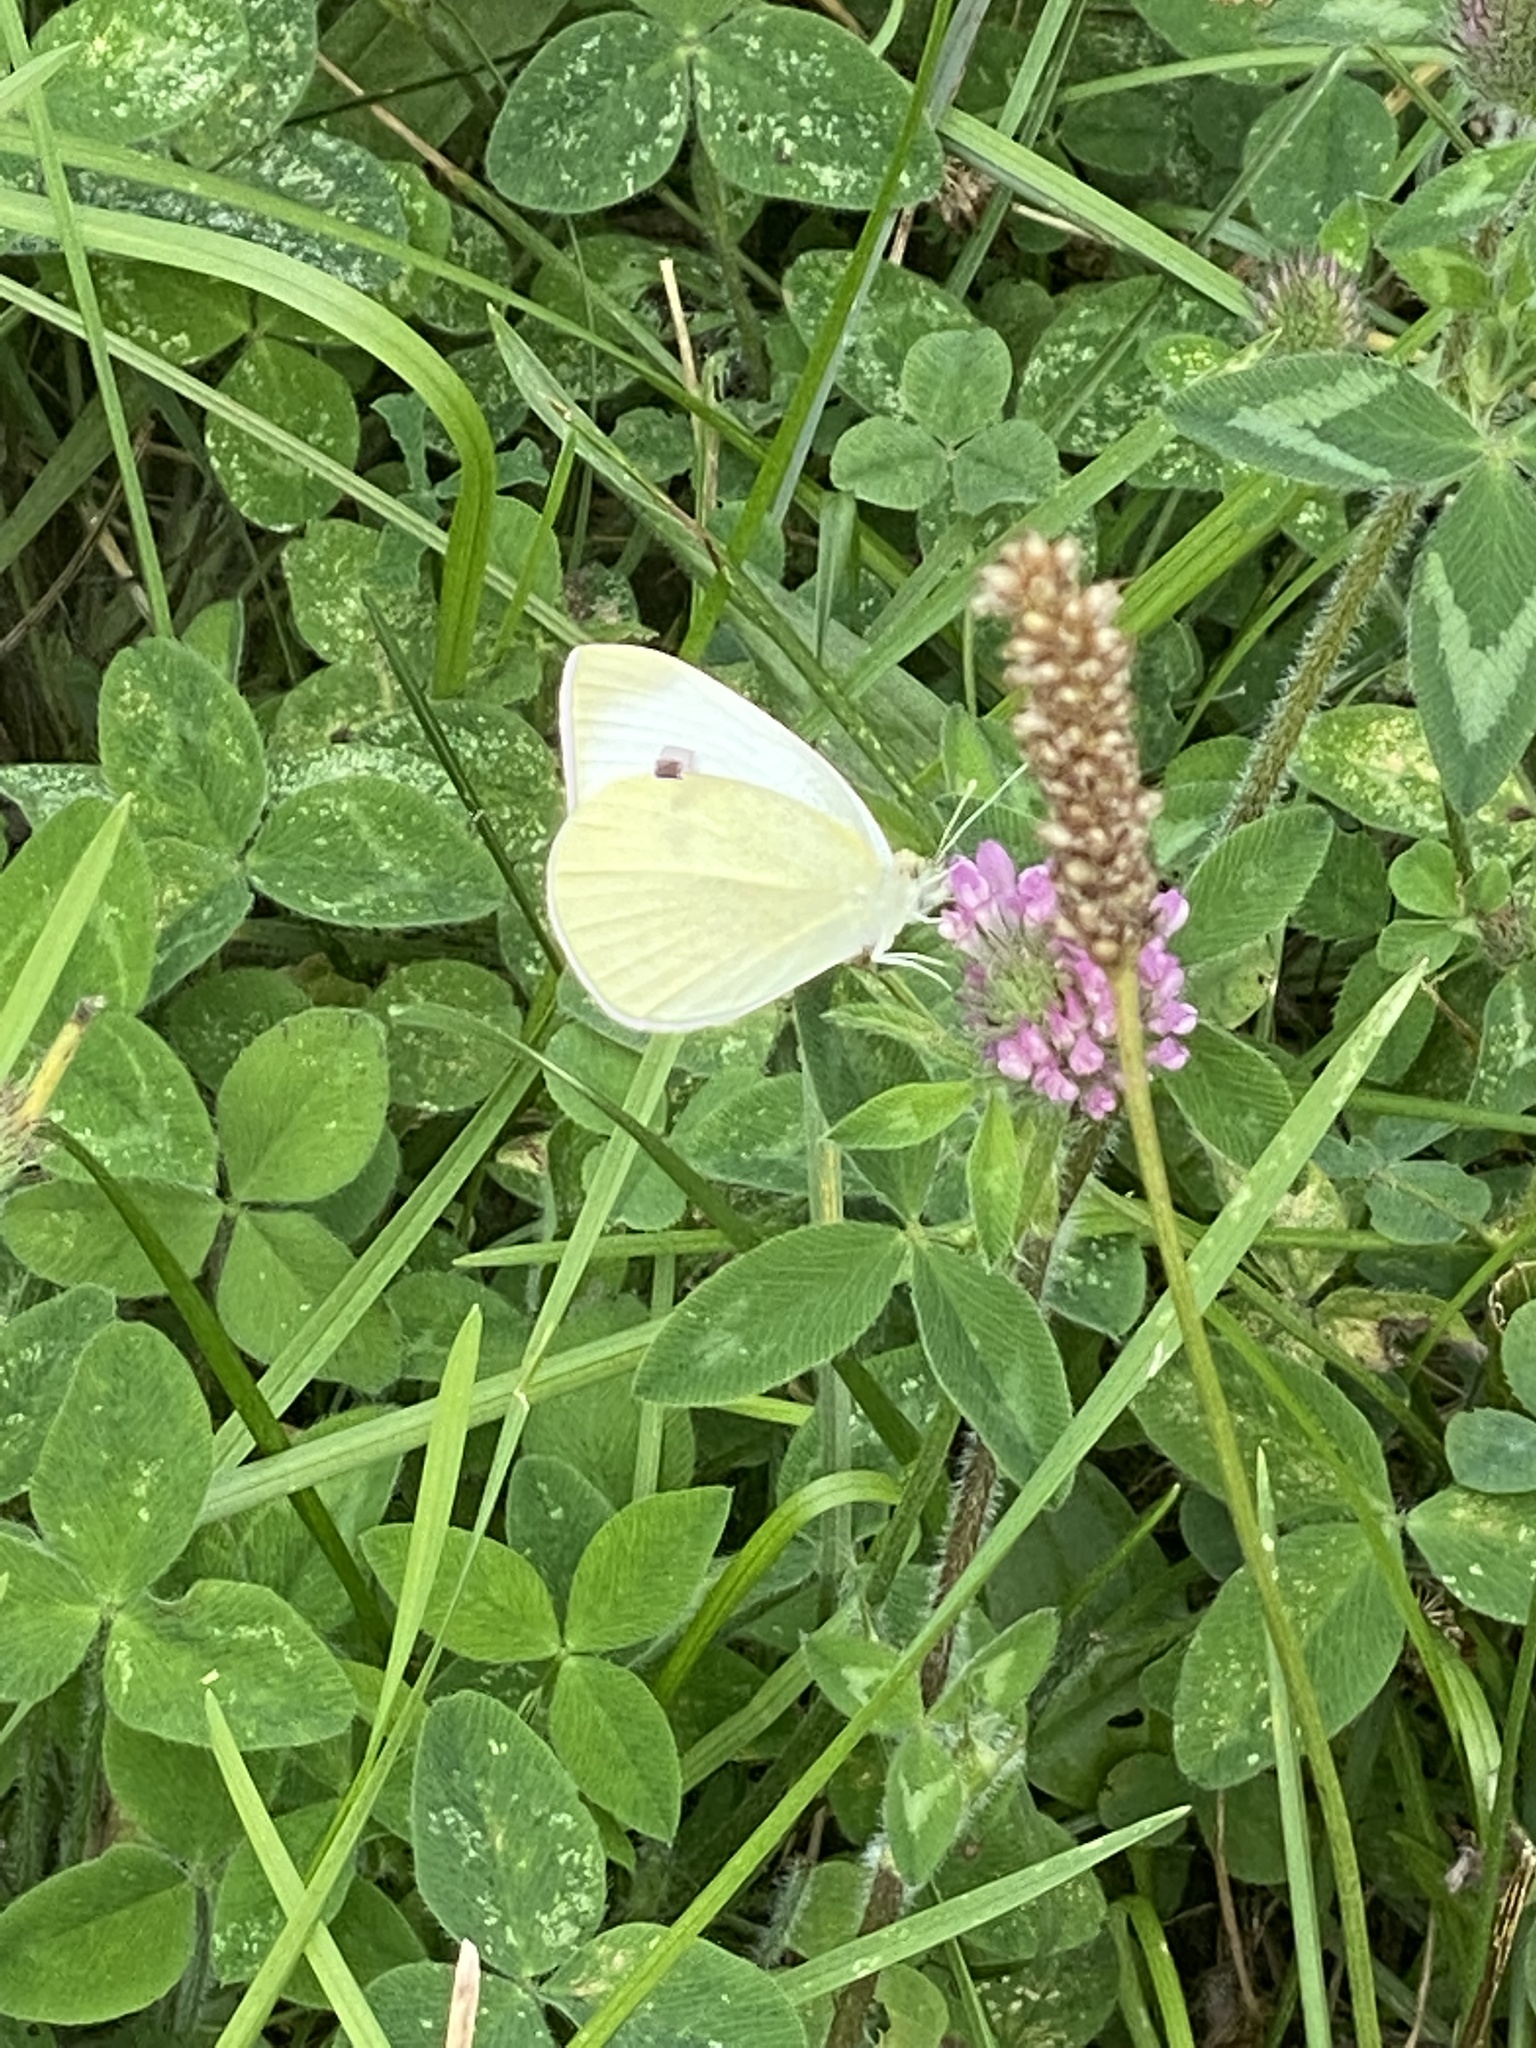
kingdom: Animalia
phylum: Arthropoda
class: Insecta
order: Lepidoptera
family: Pieridae
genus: Pieris
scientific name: Pieris rapae
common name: Small white
